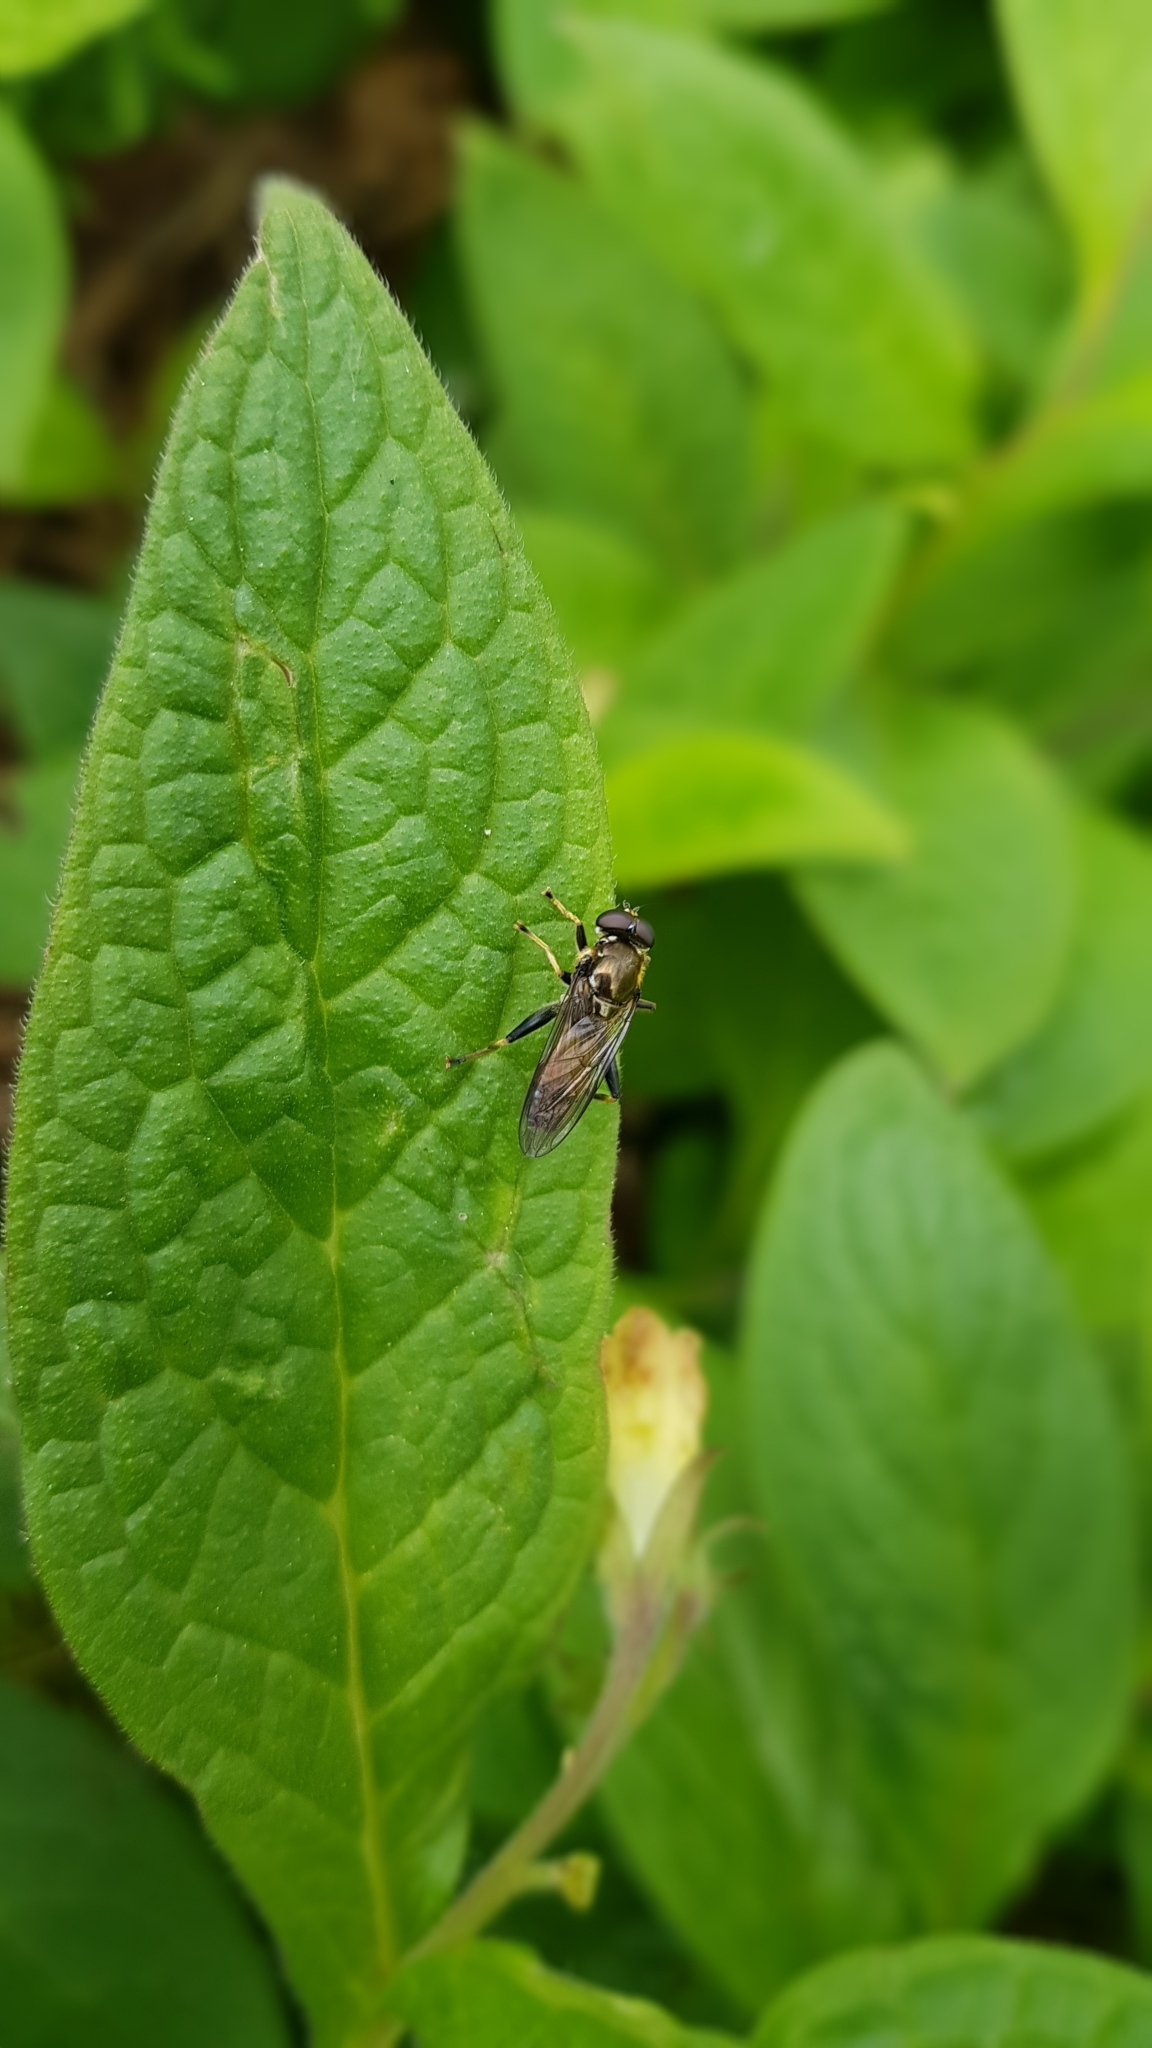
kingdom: Animalia
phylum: Arthropoda
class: Insecta
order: Diptera
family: Syrphidae
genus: Xylota
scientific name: Xylota segnis
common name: Brown-toed forest fly
